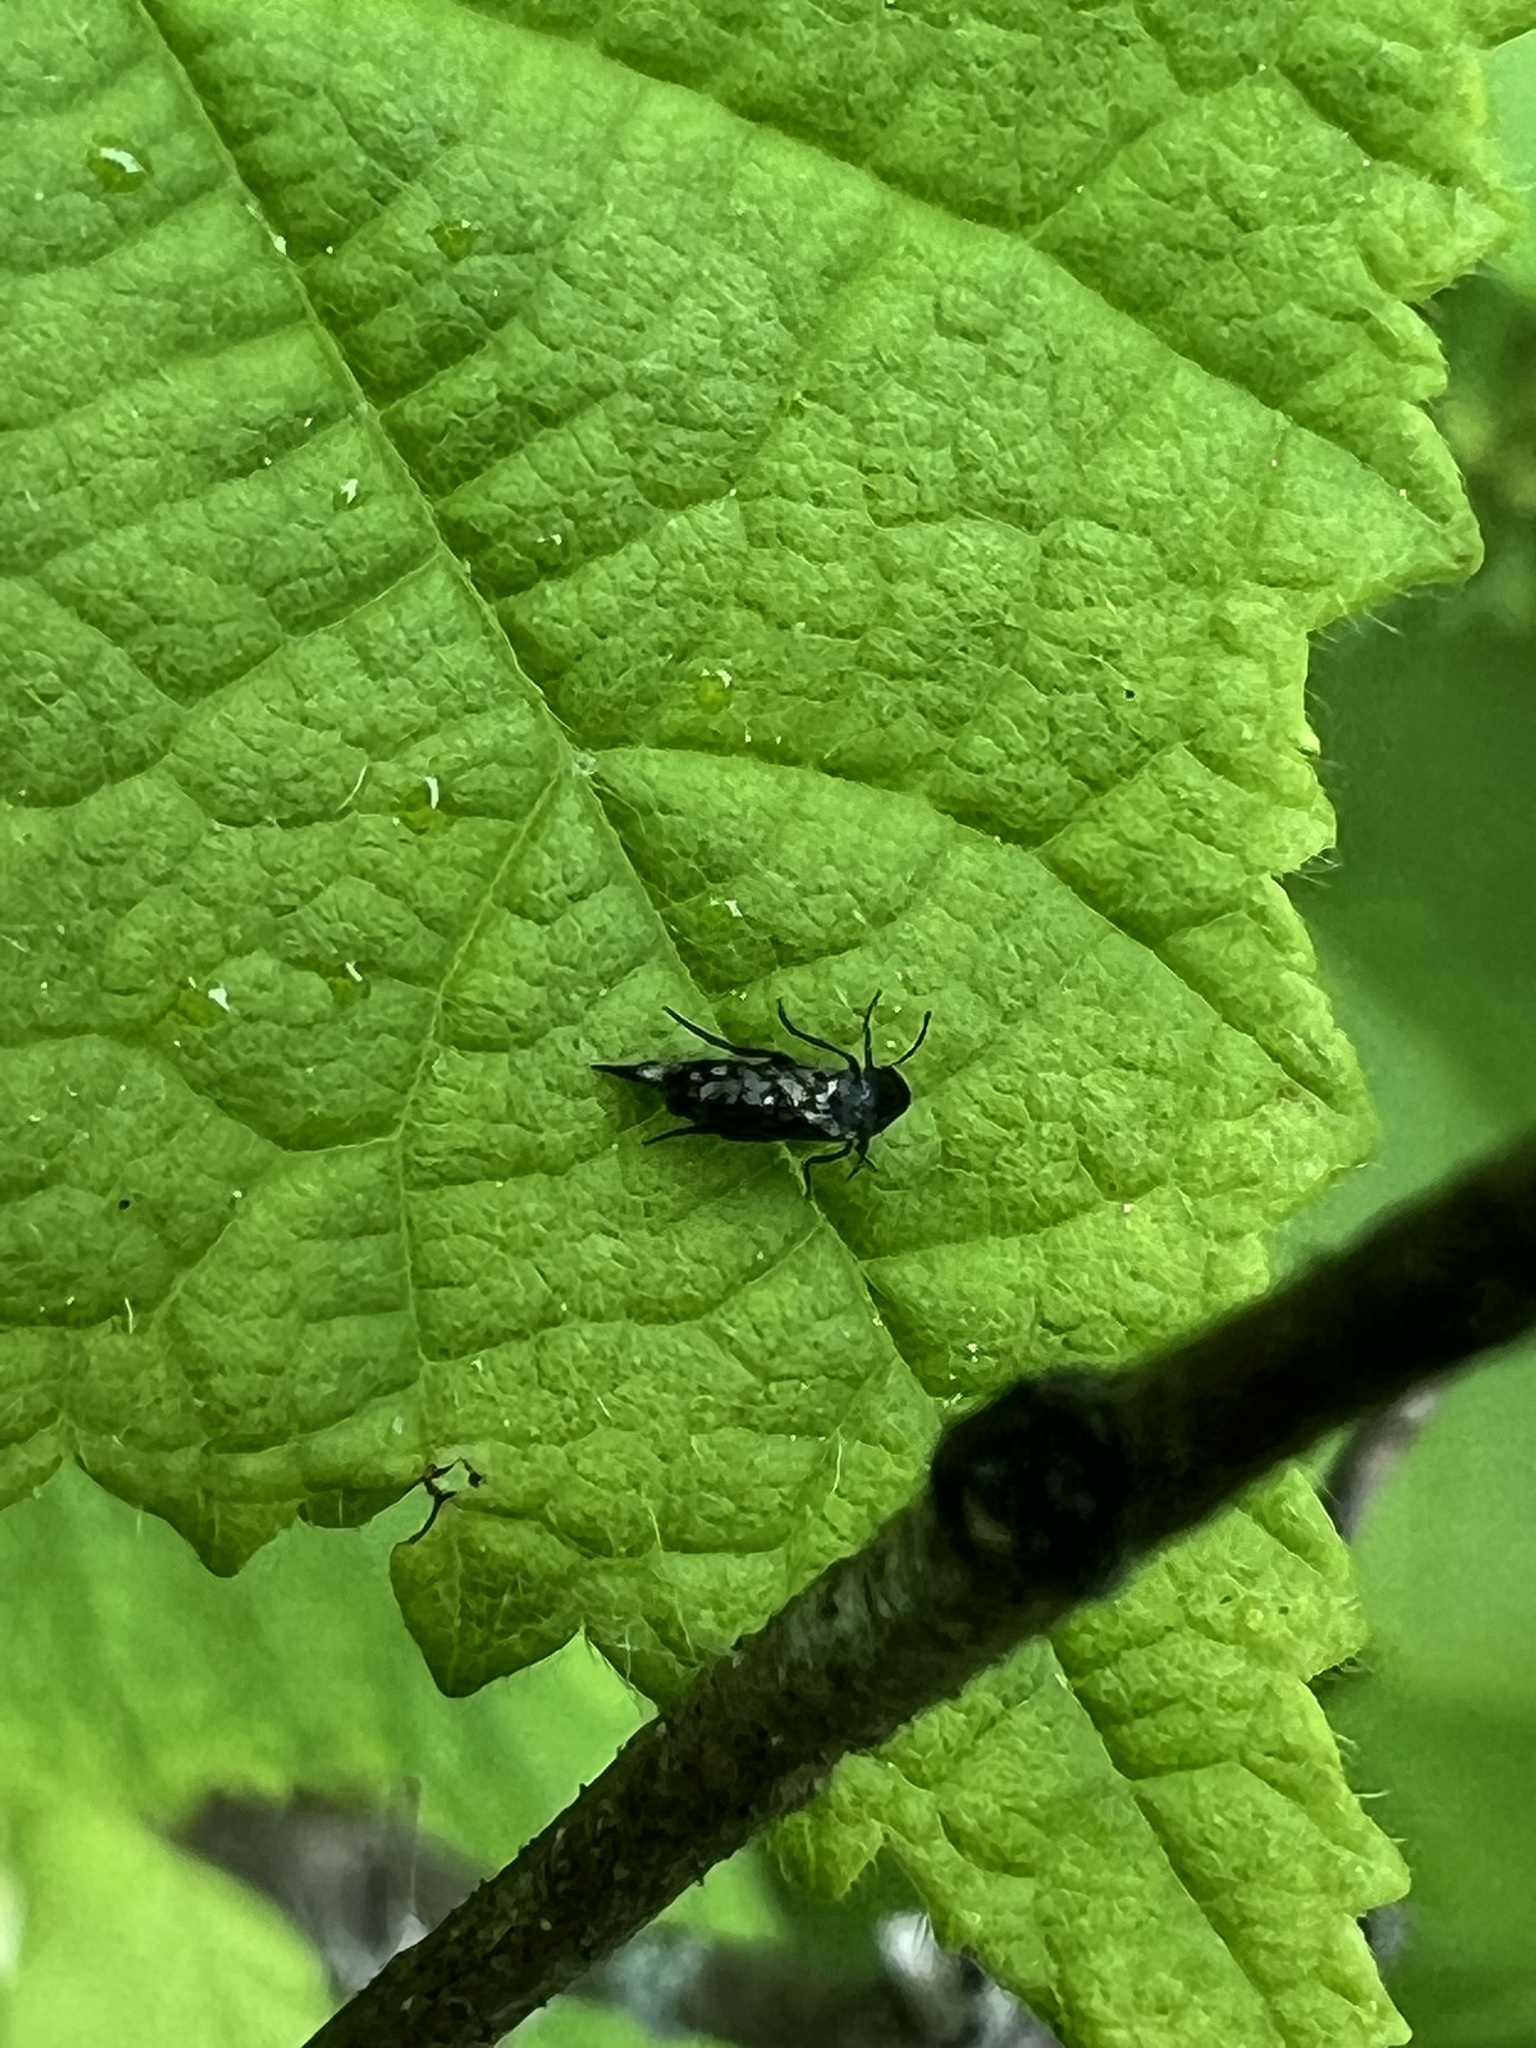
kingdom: Animalia
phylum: Arthropoda
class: Insecta
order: Coleoptera
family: Mordellidae
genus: Mordellina
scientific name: Mordellina pustulata
